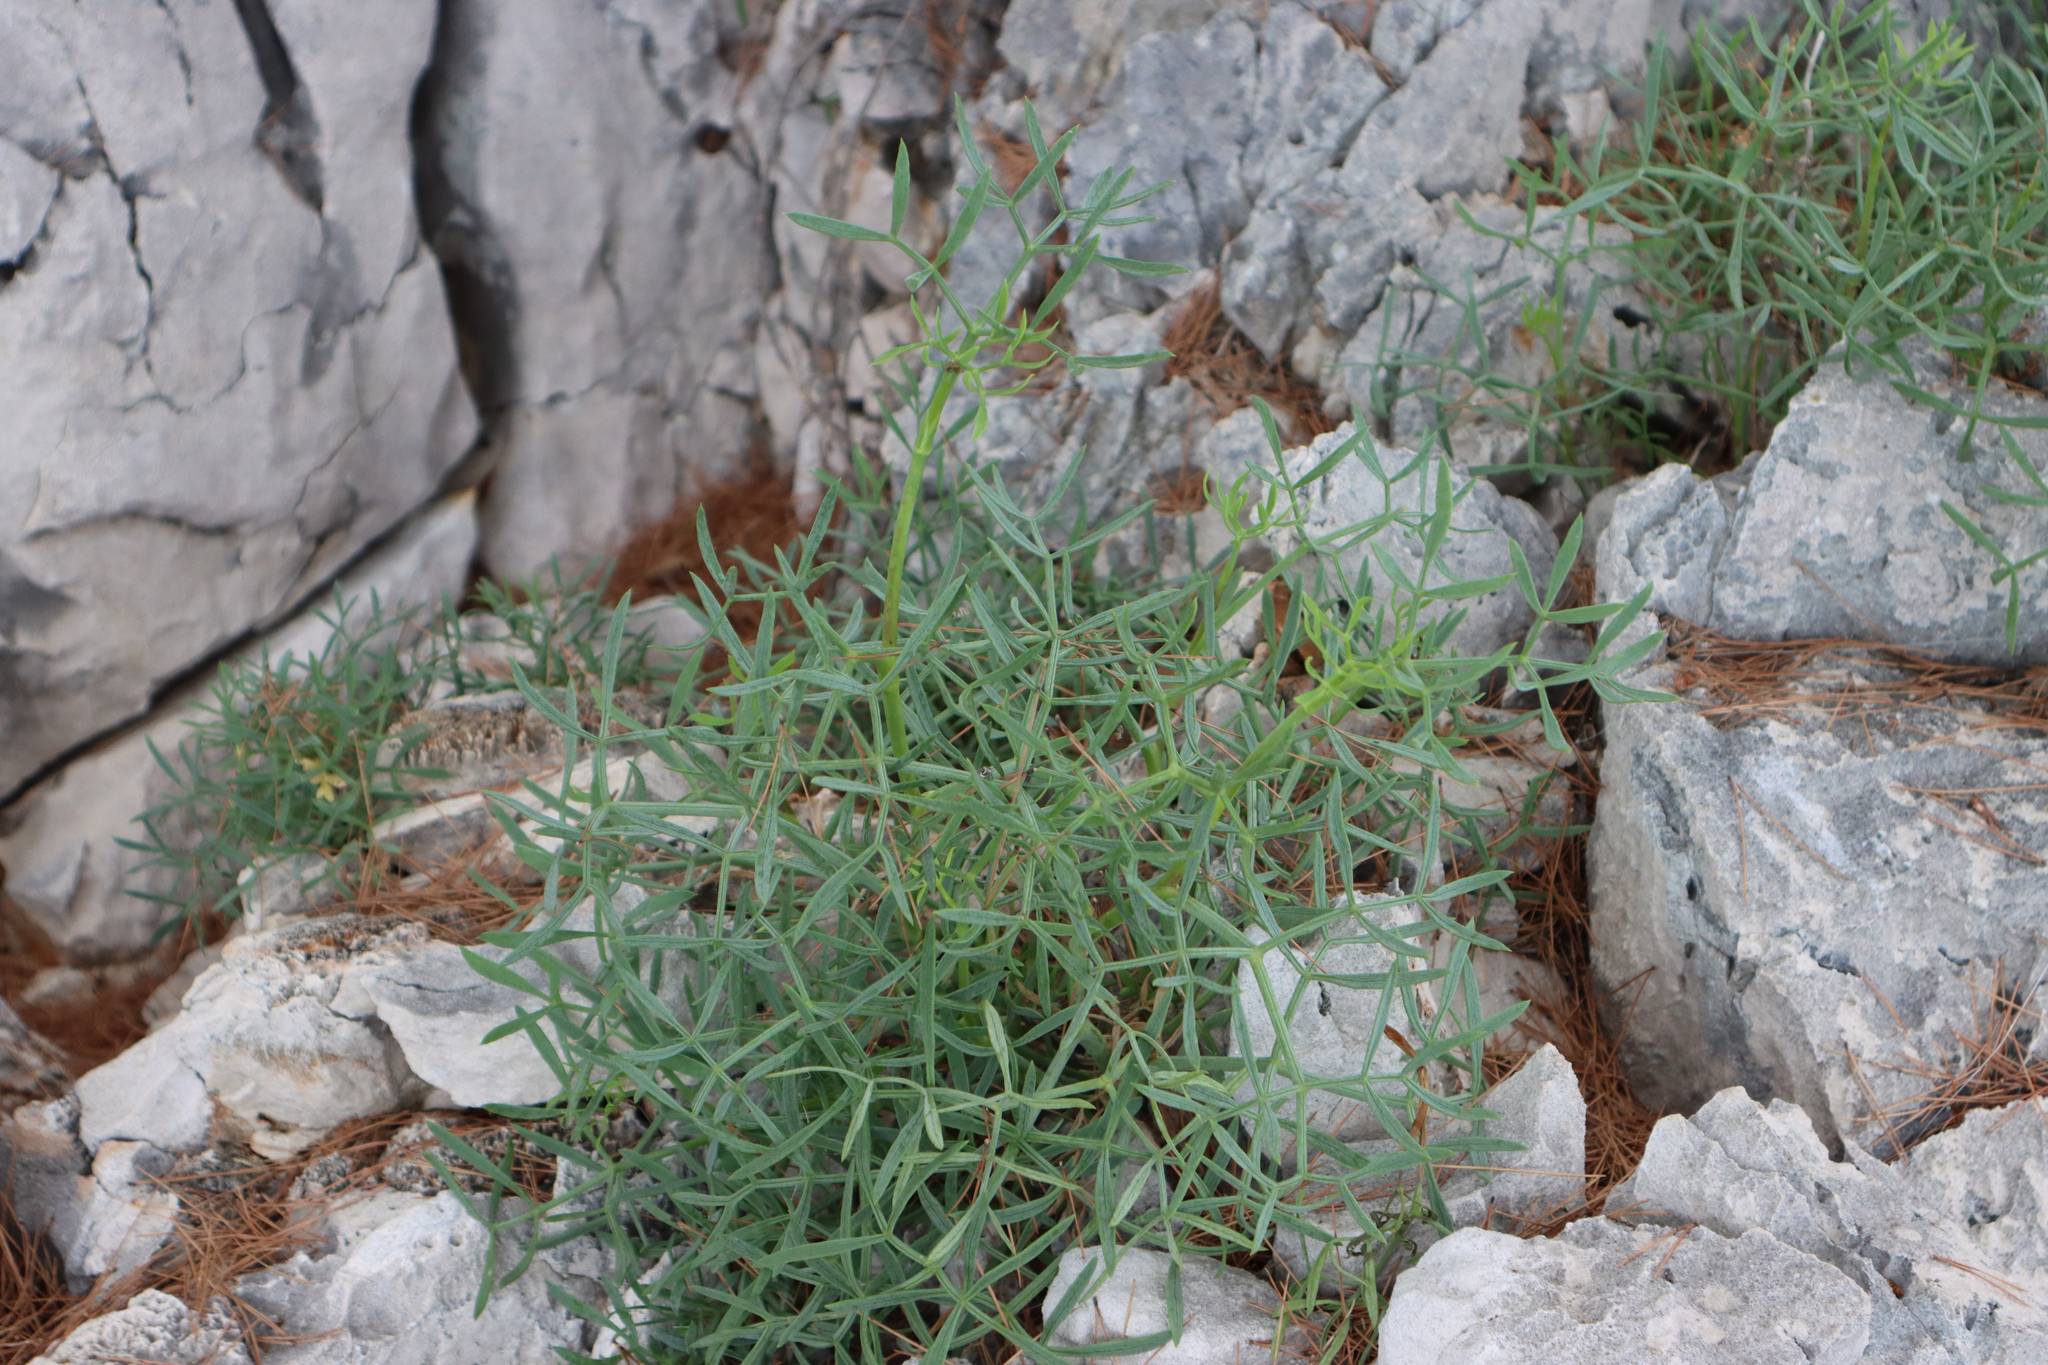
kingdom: Plantae
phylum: Tracheophyta
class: Magnoliopsida
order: Apiales
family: Apiaceae
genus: Crithmum
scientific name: Crithmum maritimum
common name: Rock samphire
